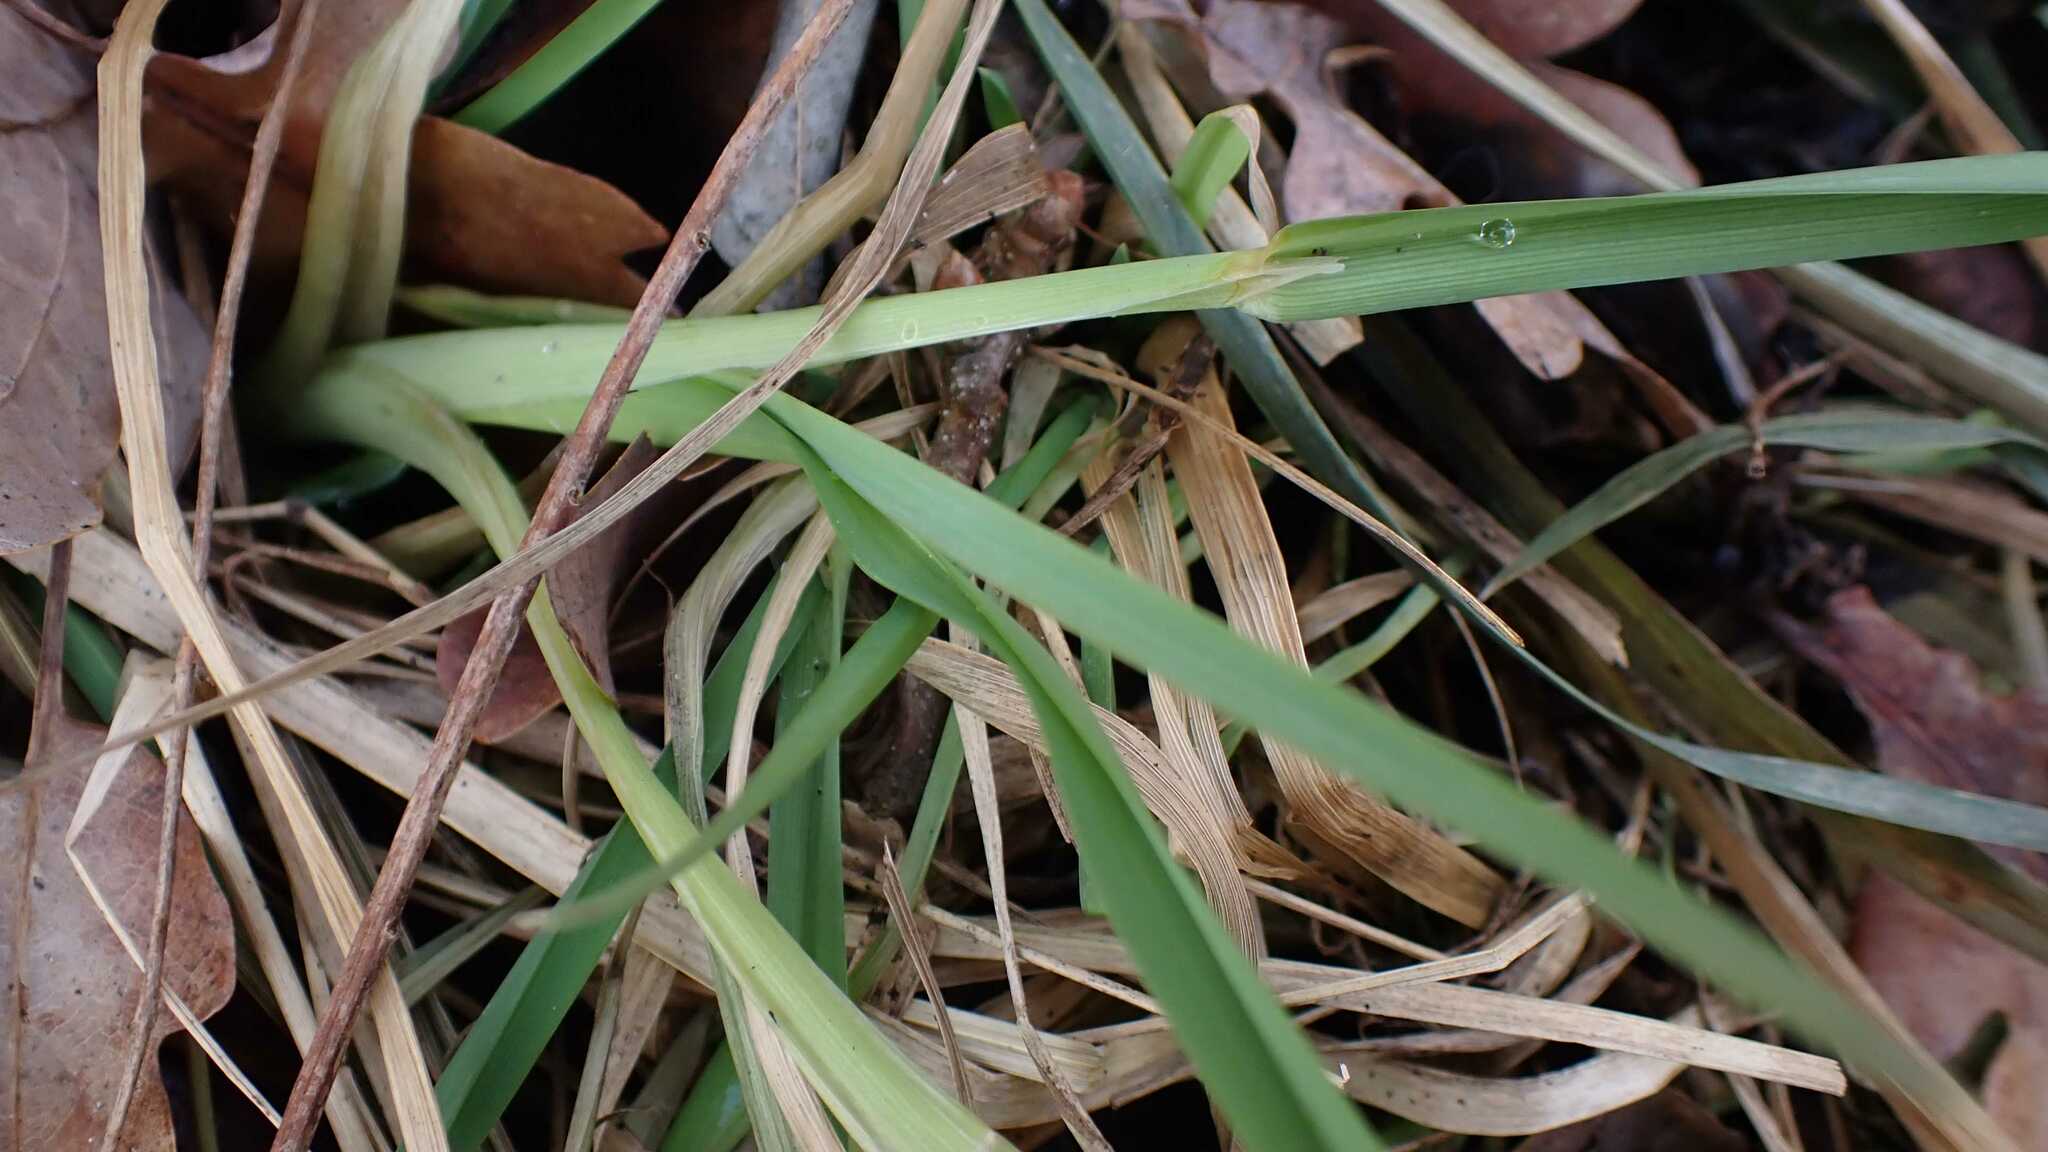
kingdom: Plantae
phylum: Tracheophyta
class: Liliopsida
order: Poales
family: Poaceae
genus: Dactylis
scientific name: Dactylis glomerata
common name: Orchardgrass
